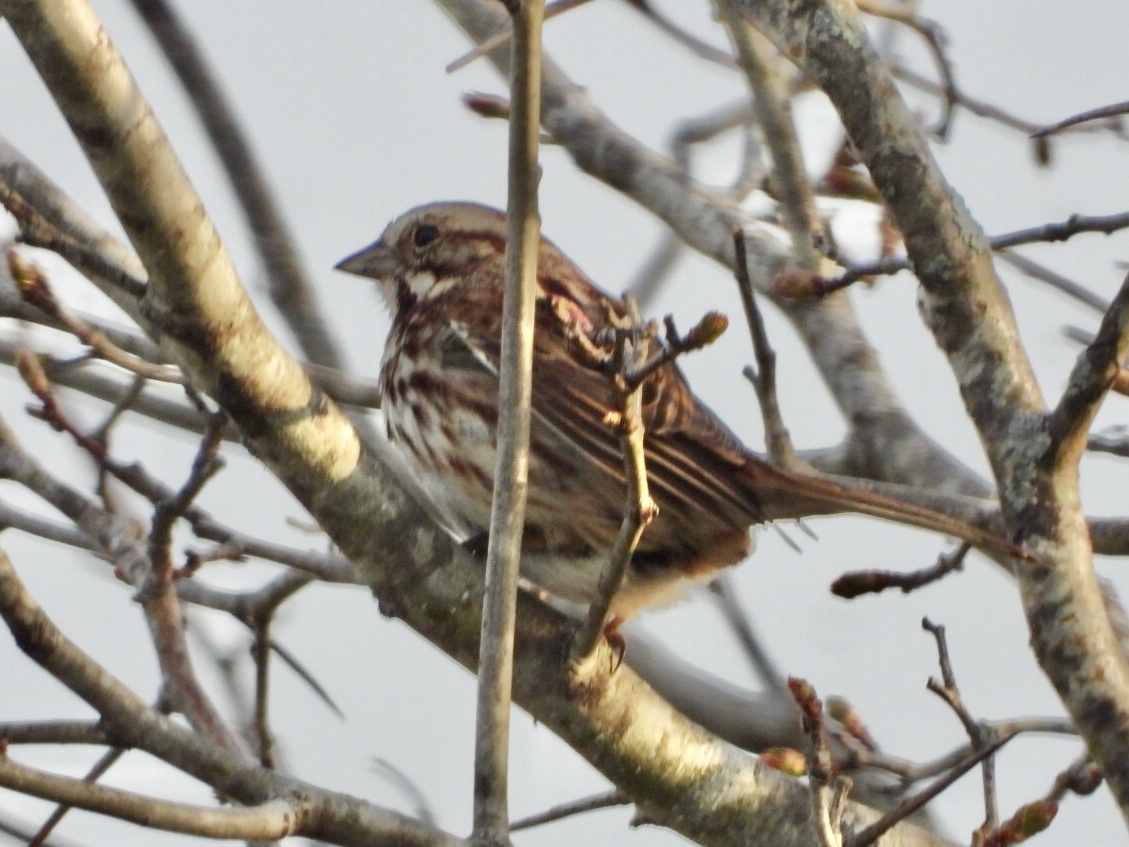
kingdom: Animalia
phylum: Chordata
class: Aves
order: Passeriformes
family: Passerellidae
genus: Melospiza
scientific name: Melospiza melodia
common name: Song sparrow
